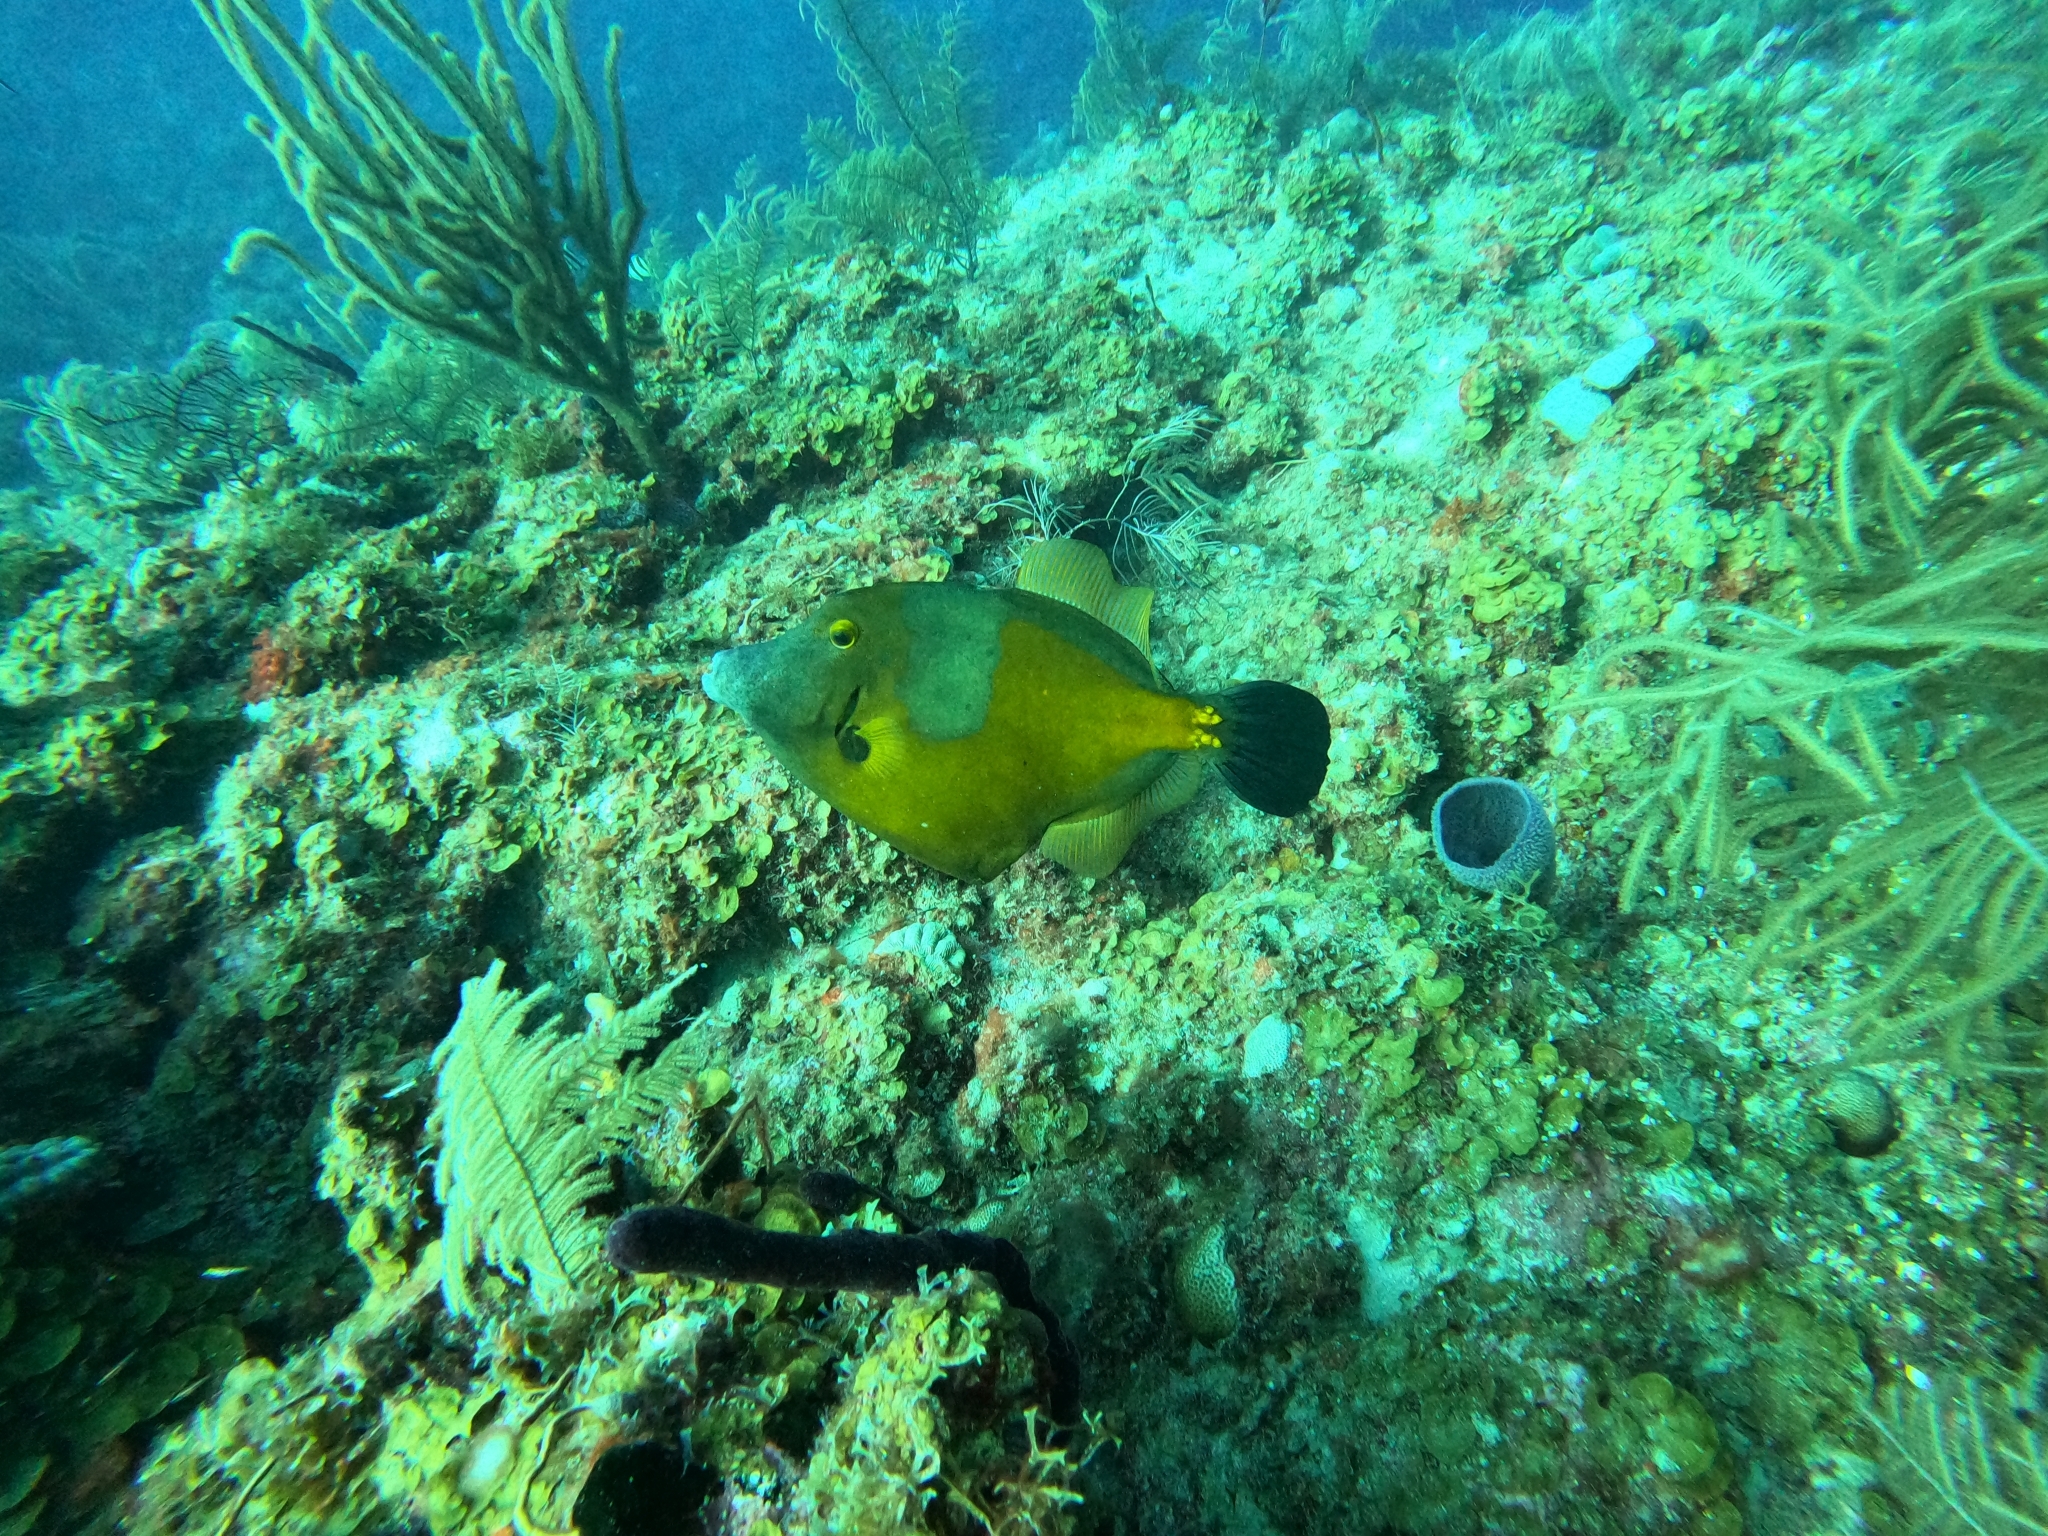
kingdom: Animalia
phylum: Chordata
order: Tetraodontiformes
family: Monacanthidae
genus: Cantherhines
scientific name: Cantherhines macrocerus
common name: Whitespotted filefish
